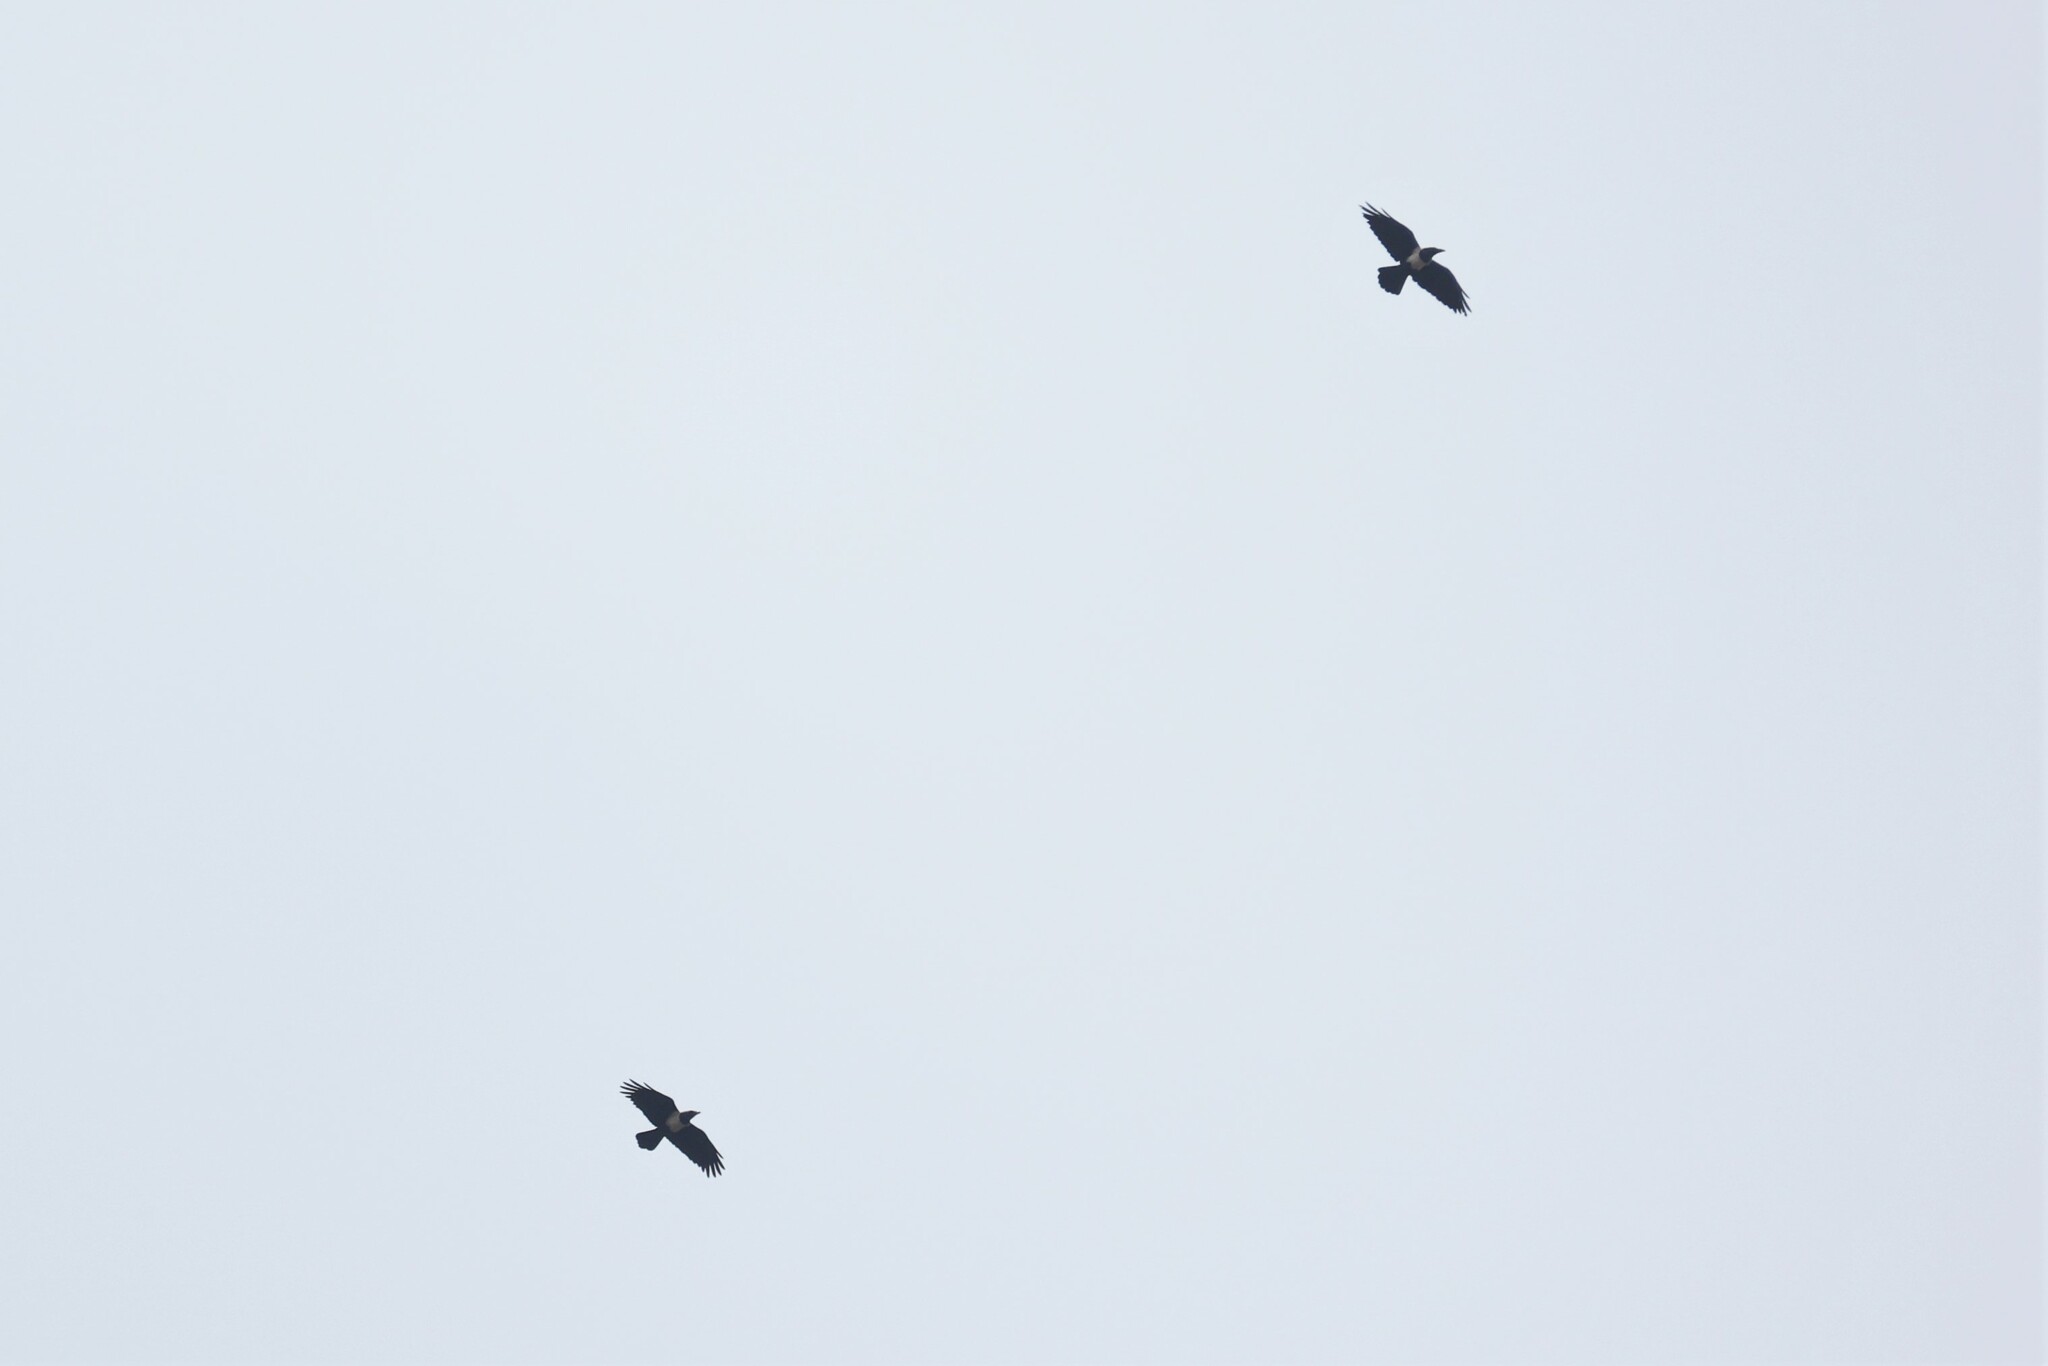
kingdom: Animalia
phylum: Chordata
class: Aves
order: Passeriformes
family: Corvidae
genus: Corvus
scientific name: Corvus albus
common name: Pied crow
